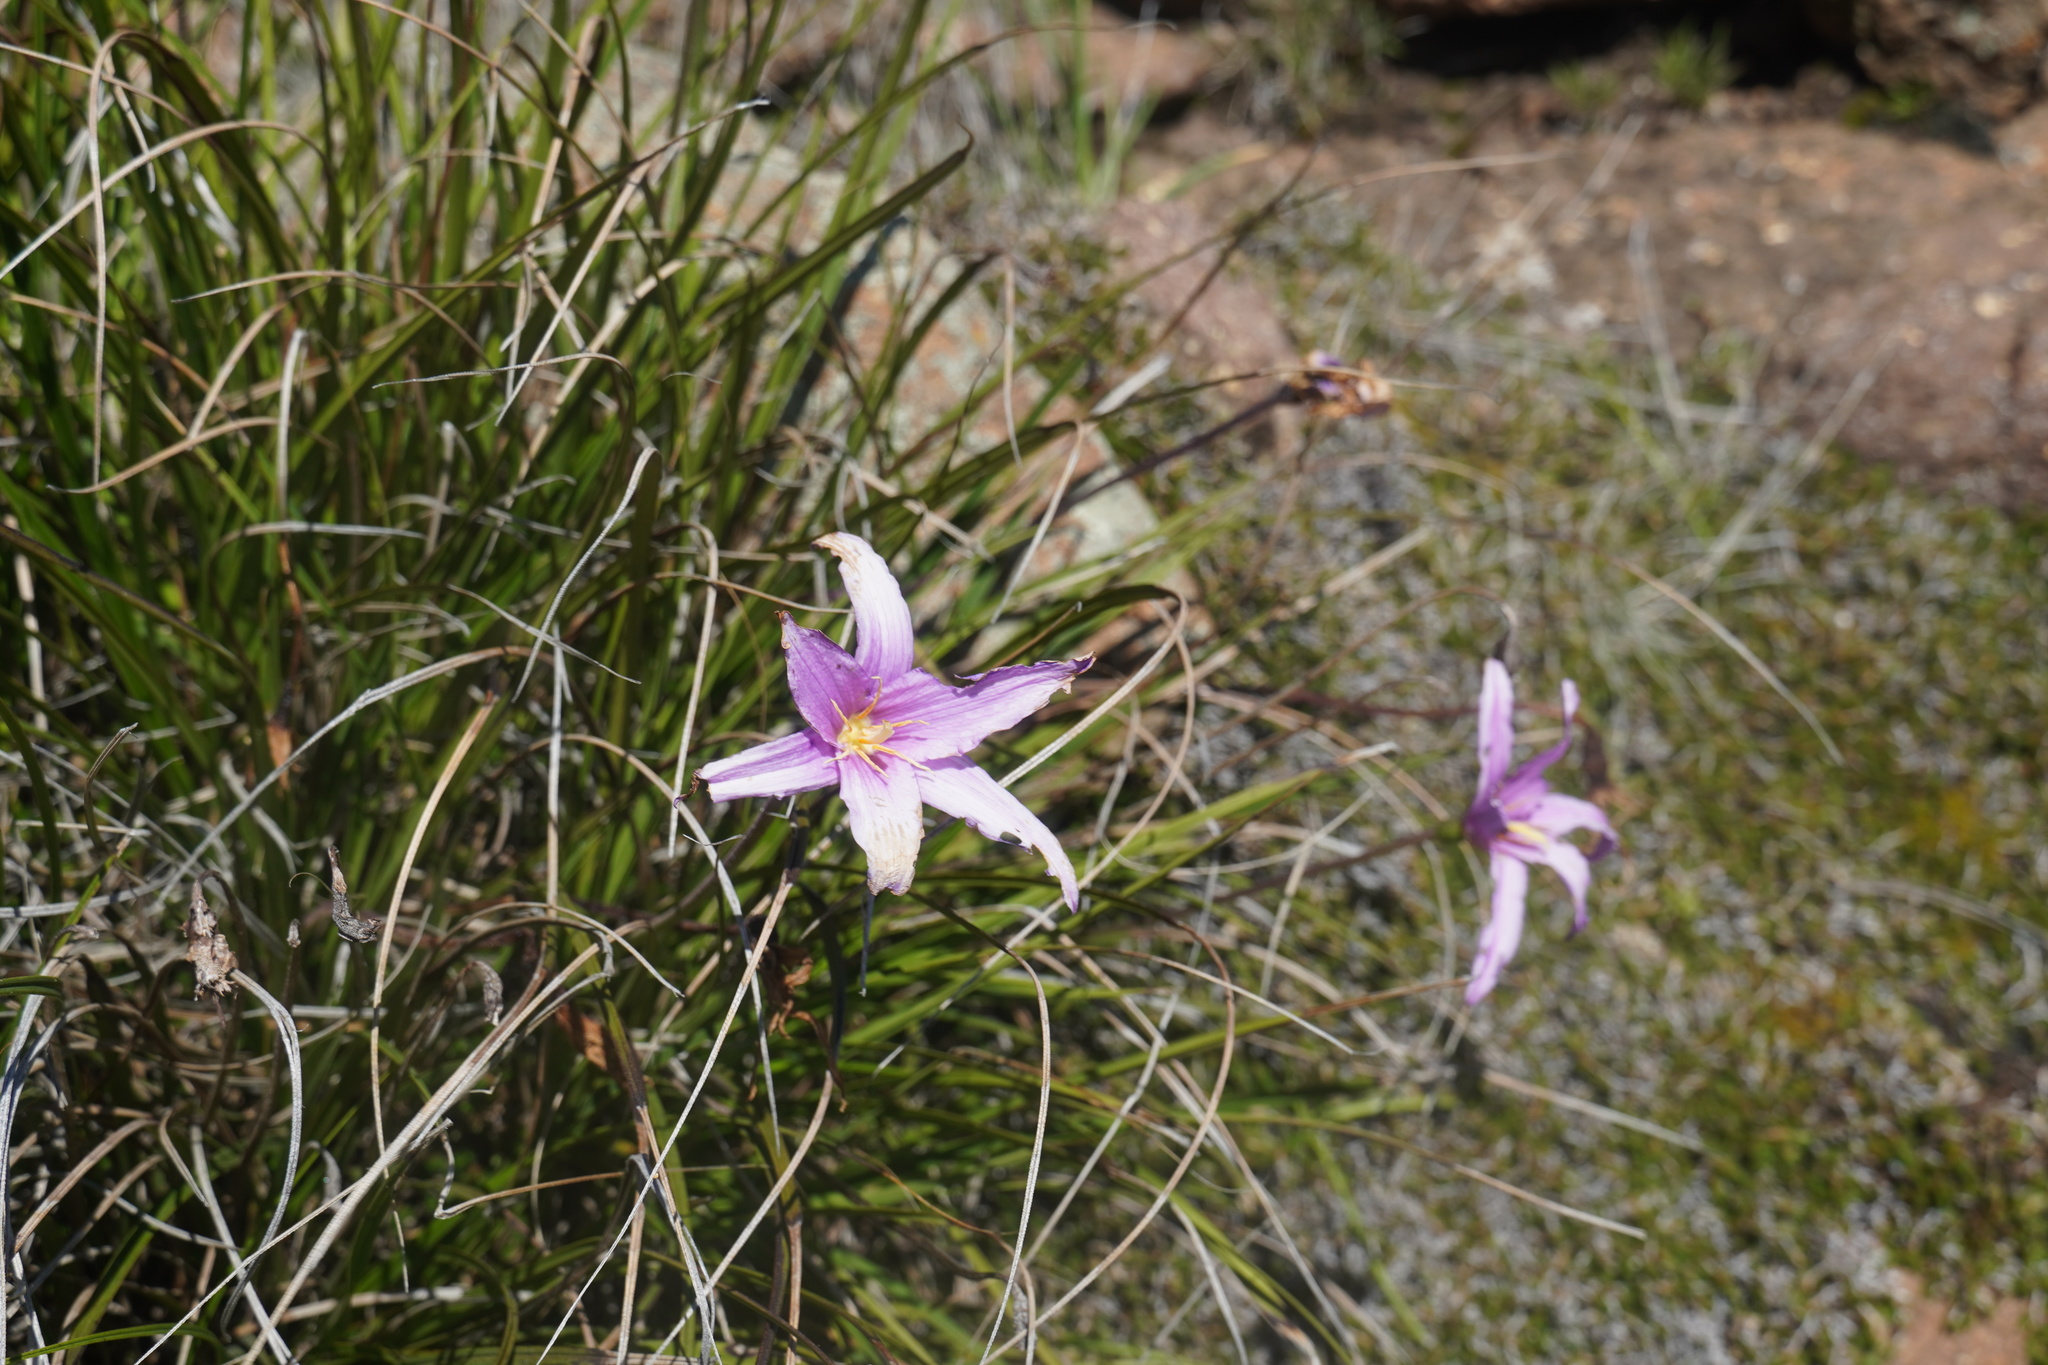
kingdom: Plantae
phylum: Tracheophyta
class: Liliopsida
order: Pandanales
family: Velloziaceae
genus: Xerophyta
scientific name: Xerophyta viscosa
